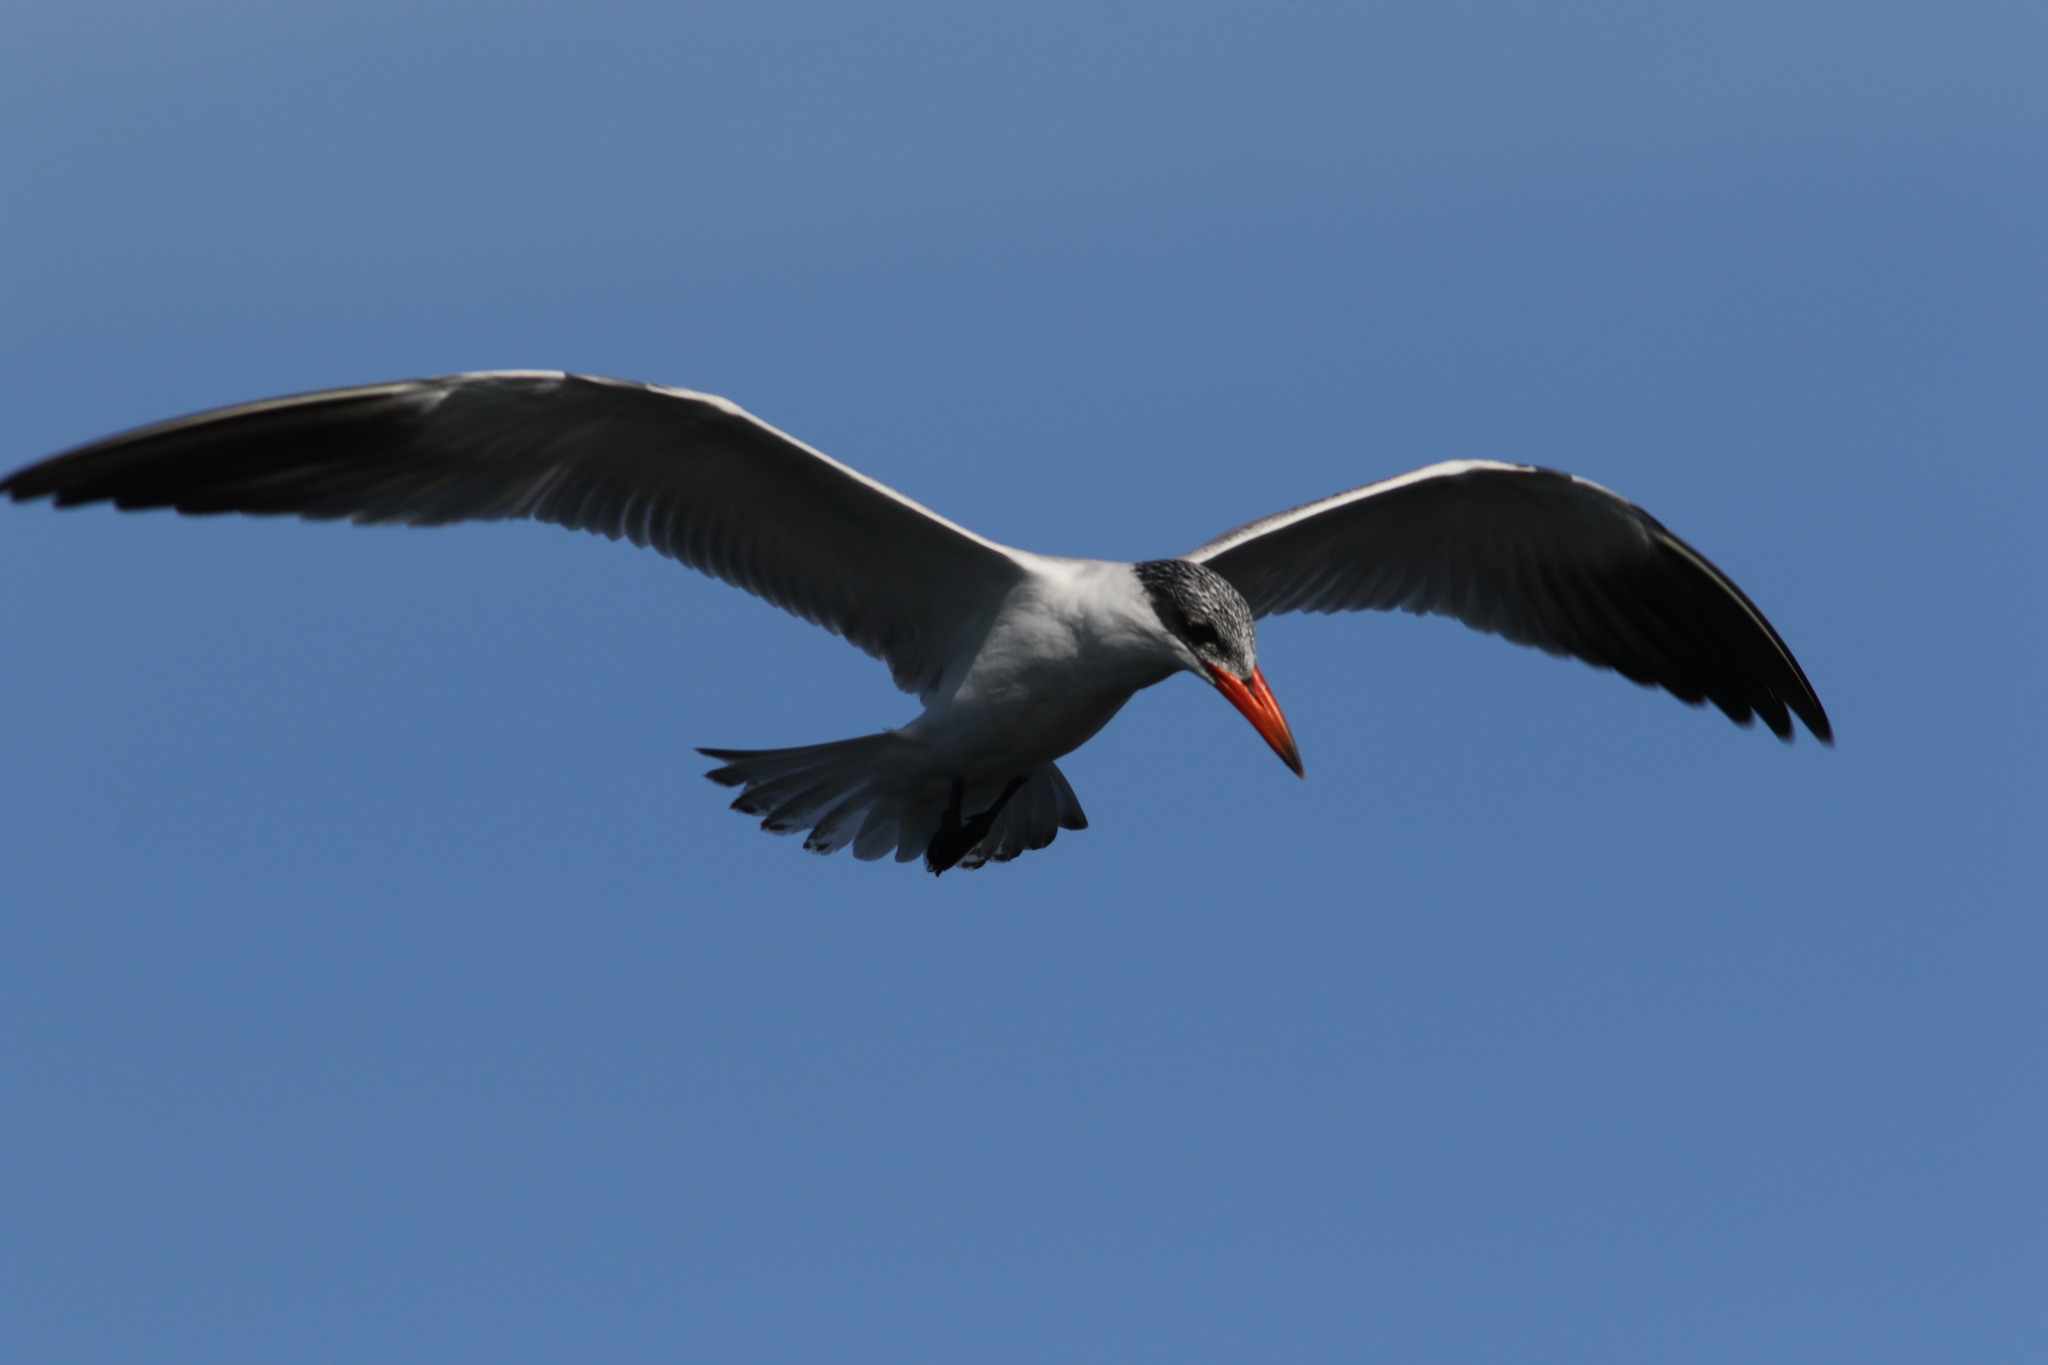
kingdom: Animalia
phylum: Chordata
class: Aves
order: Charadriiformes
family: Laridae
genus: Hydroprogne
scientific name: Hydroprogne caspia
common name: Caspian tern
